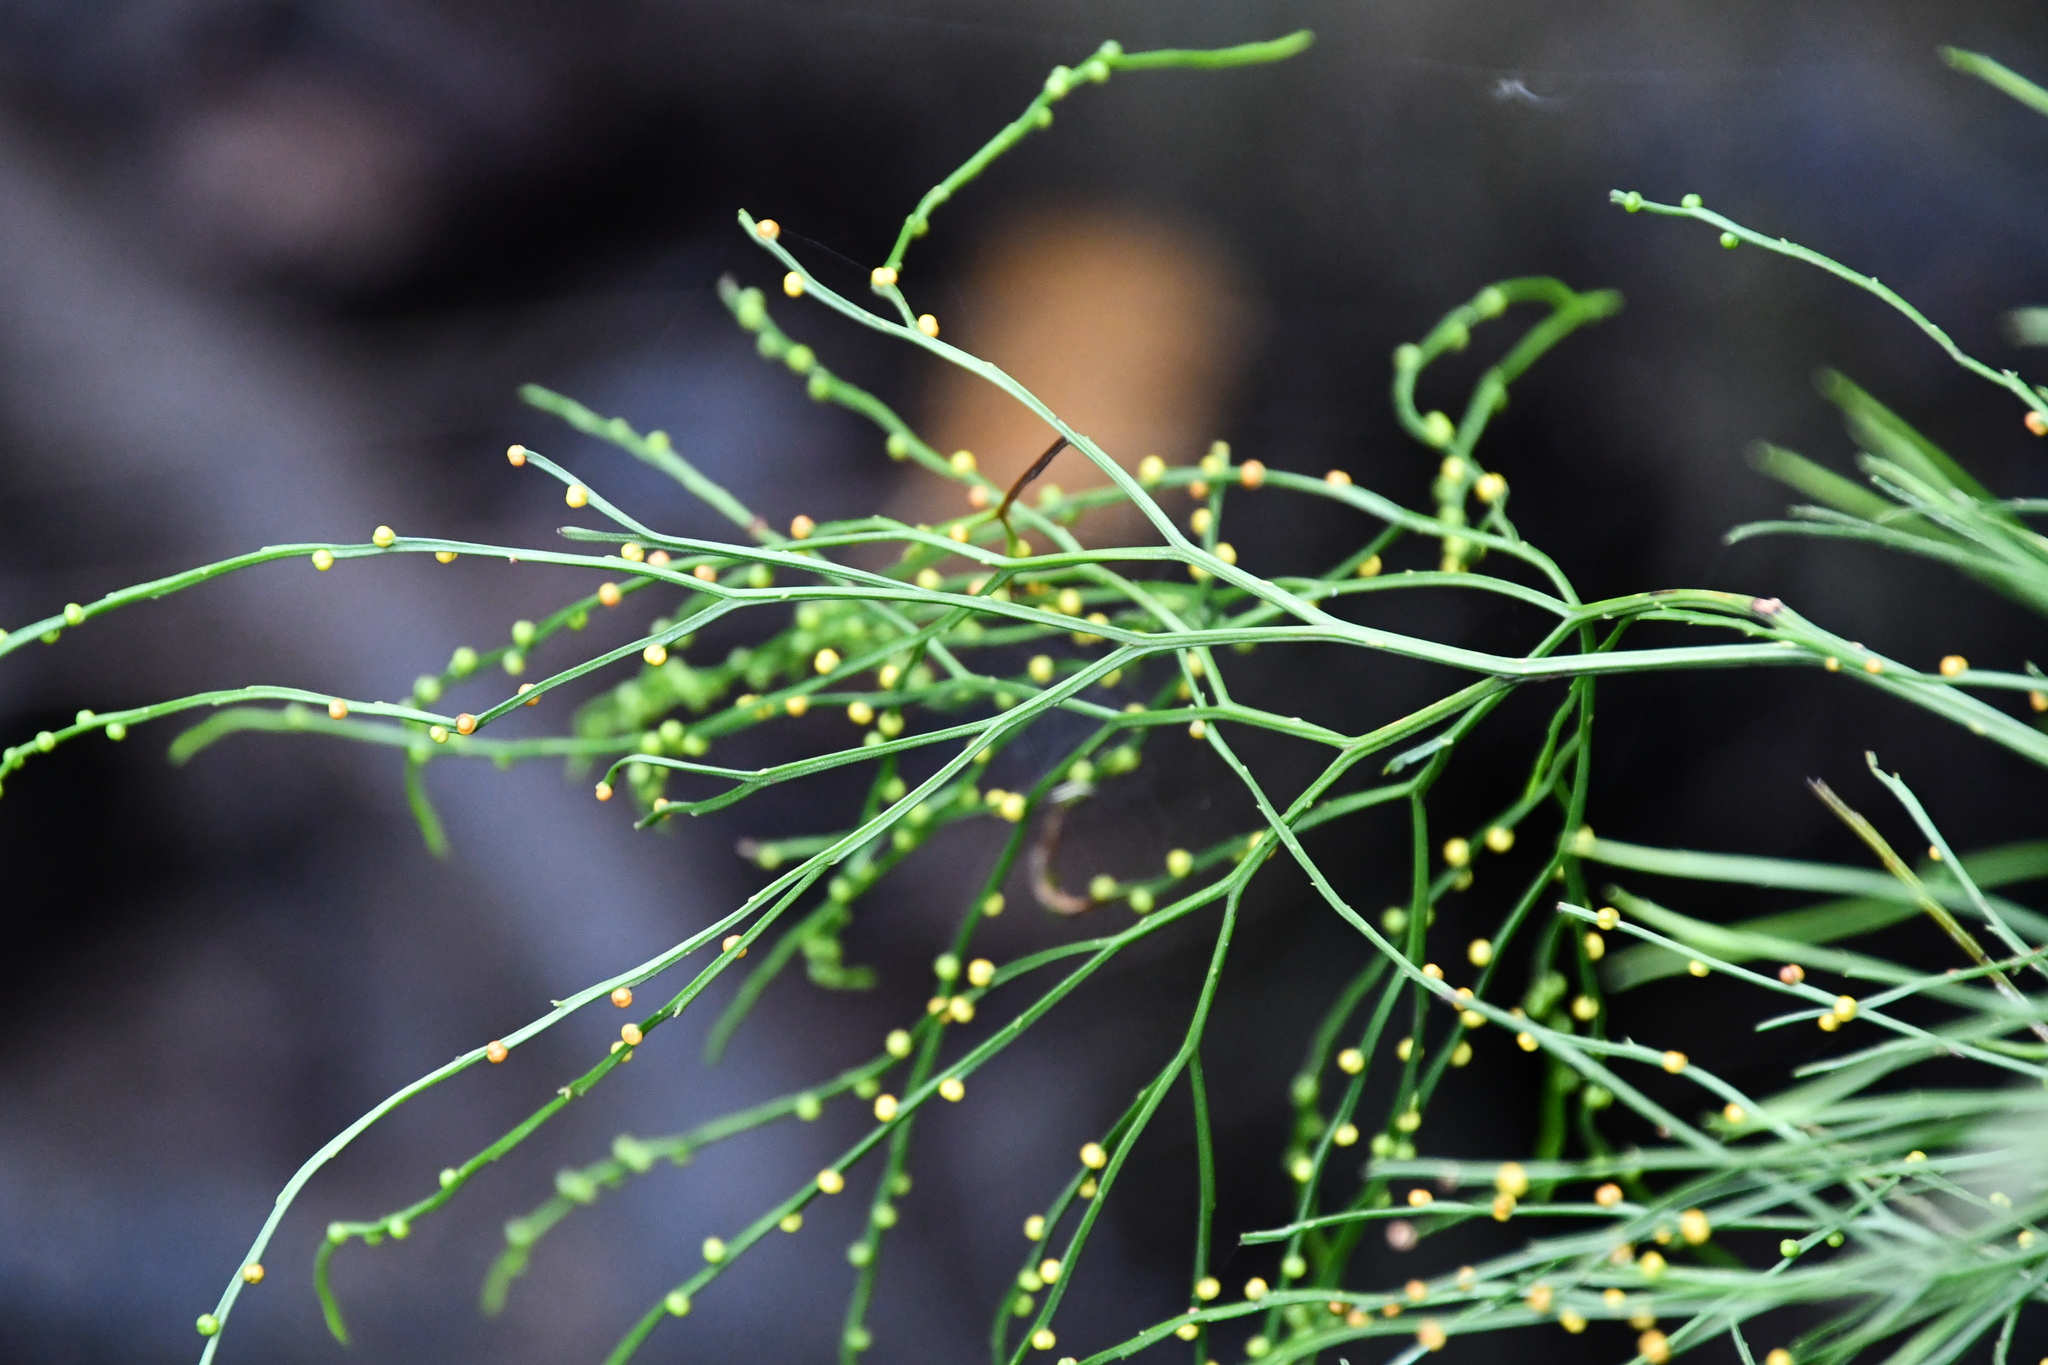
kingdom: Plantae
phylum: Tracheophyta
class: Polypodiopsida
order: Psilotales
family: Psilotaceae
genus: Psilotum
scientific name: Psilotum nudum
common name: Skeleton fork fern
